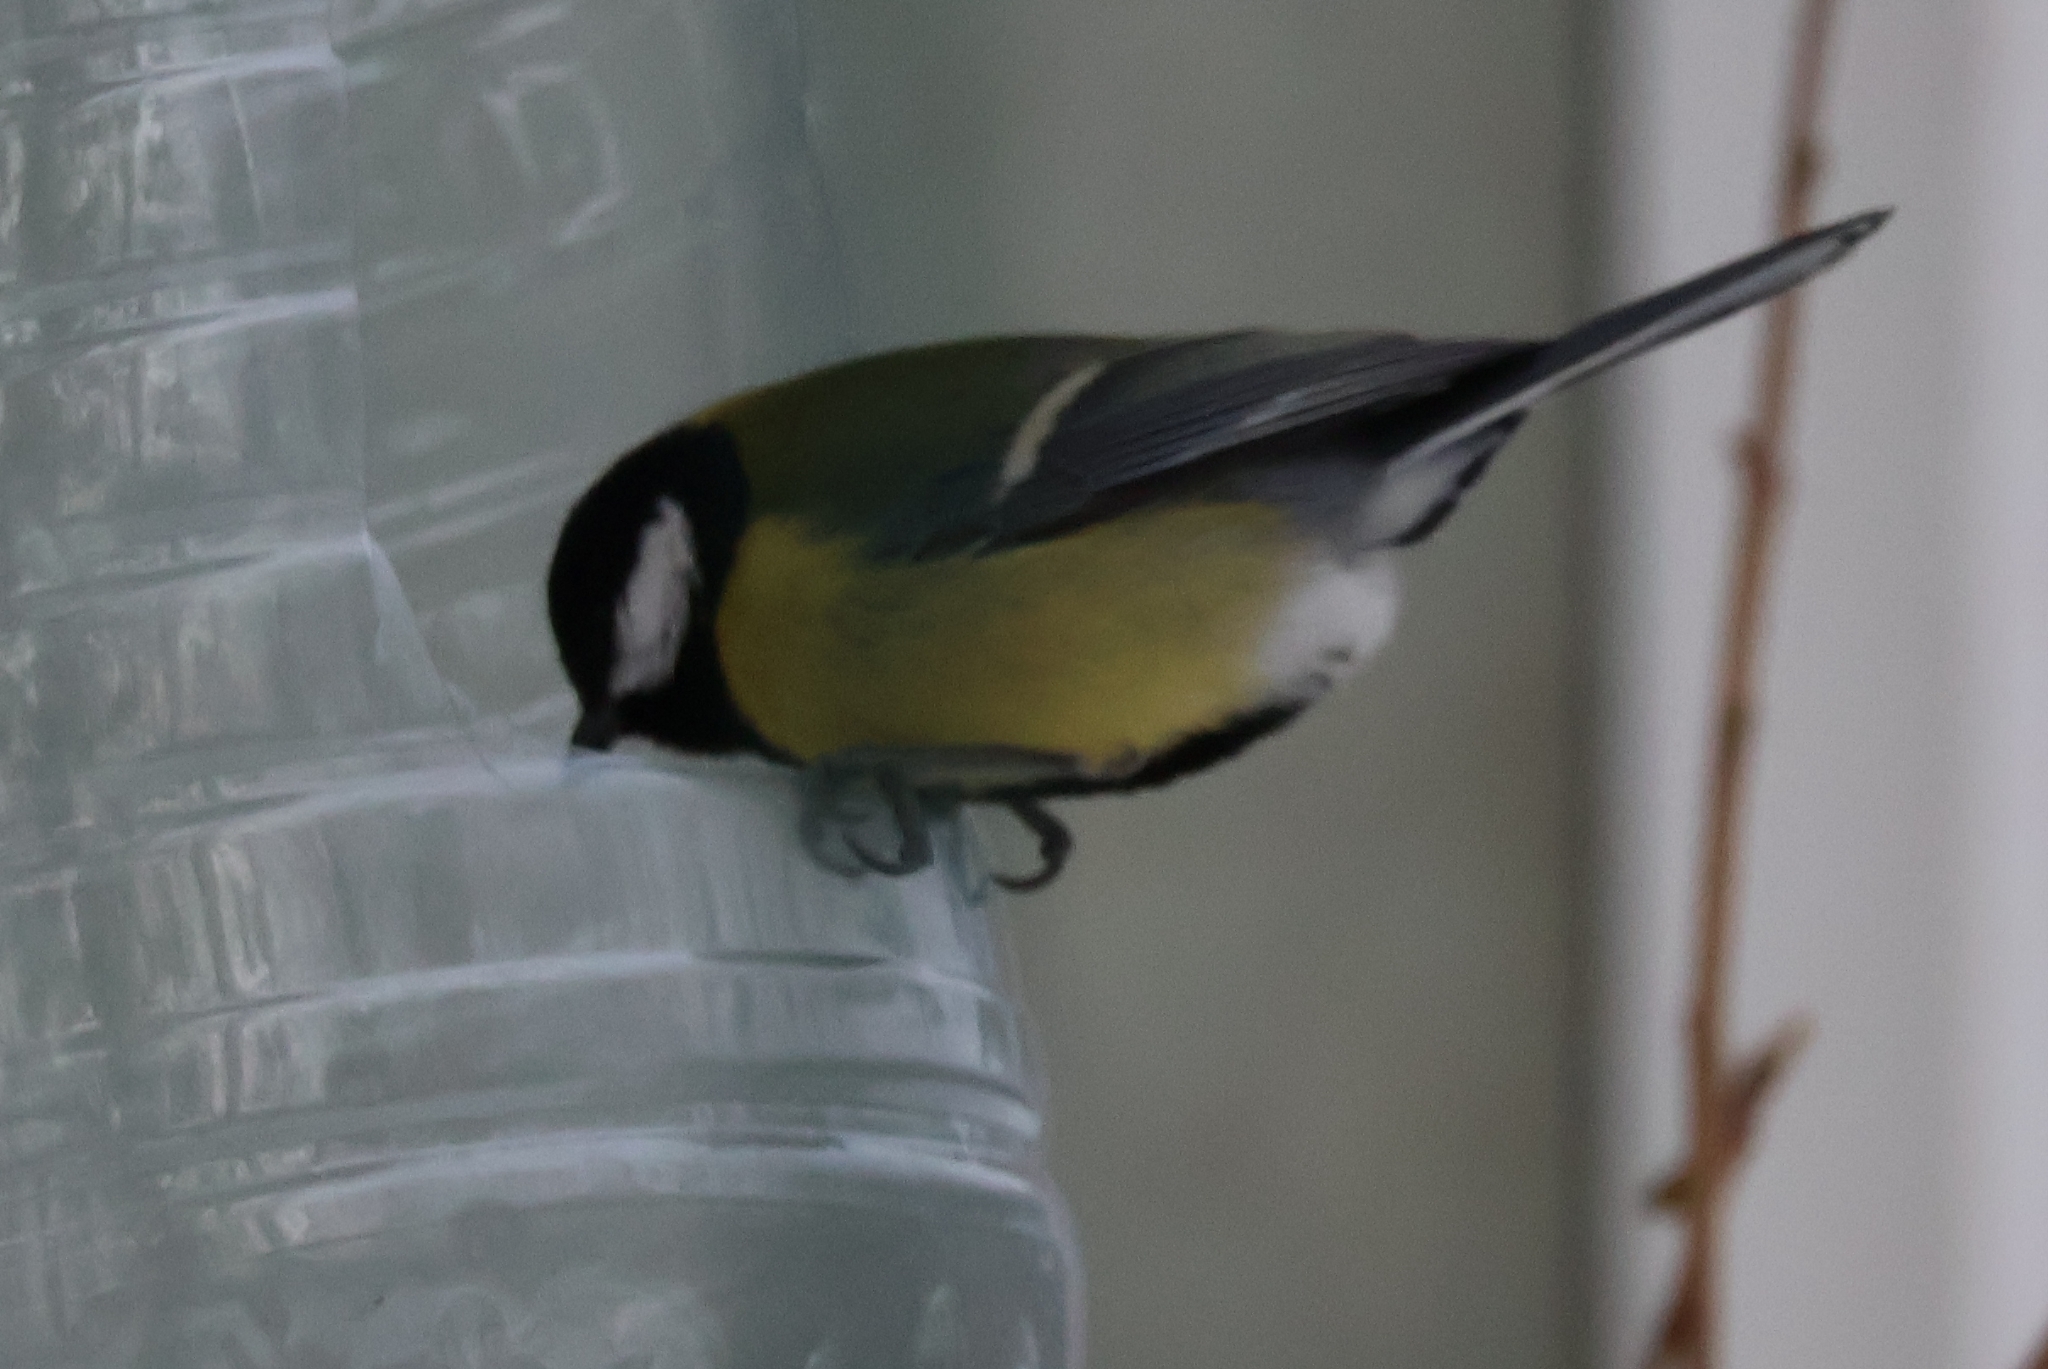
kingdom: Animalia
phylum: Chordata
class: Aves
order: Passeriformes
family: Paridae
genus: Parus
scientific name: Parus major
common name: Great tit
